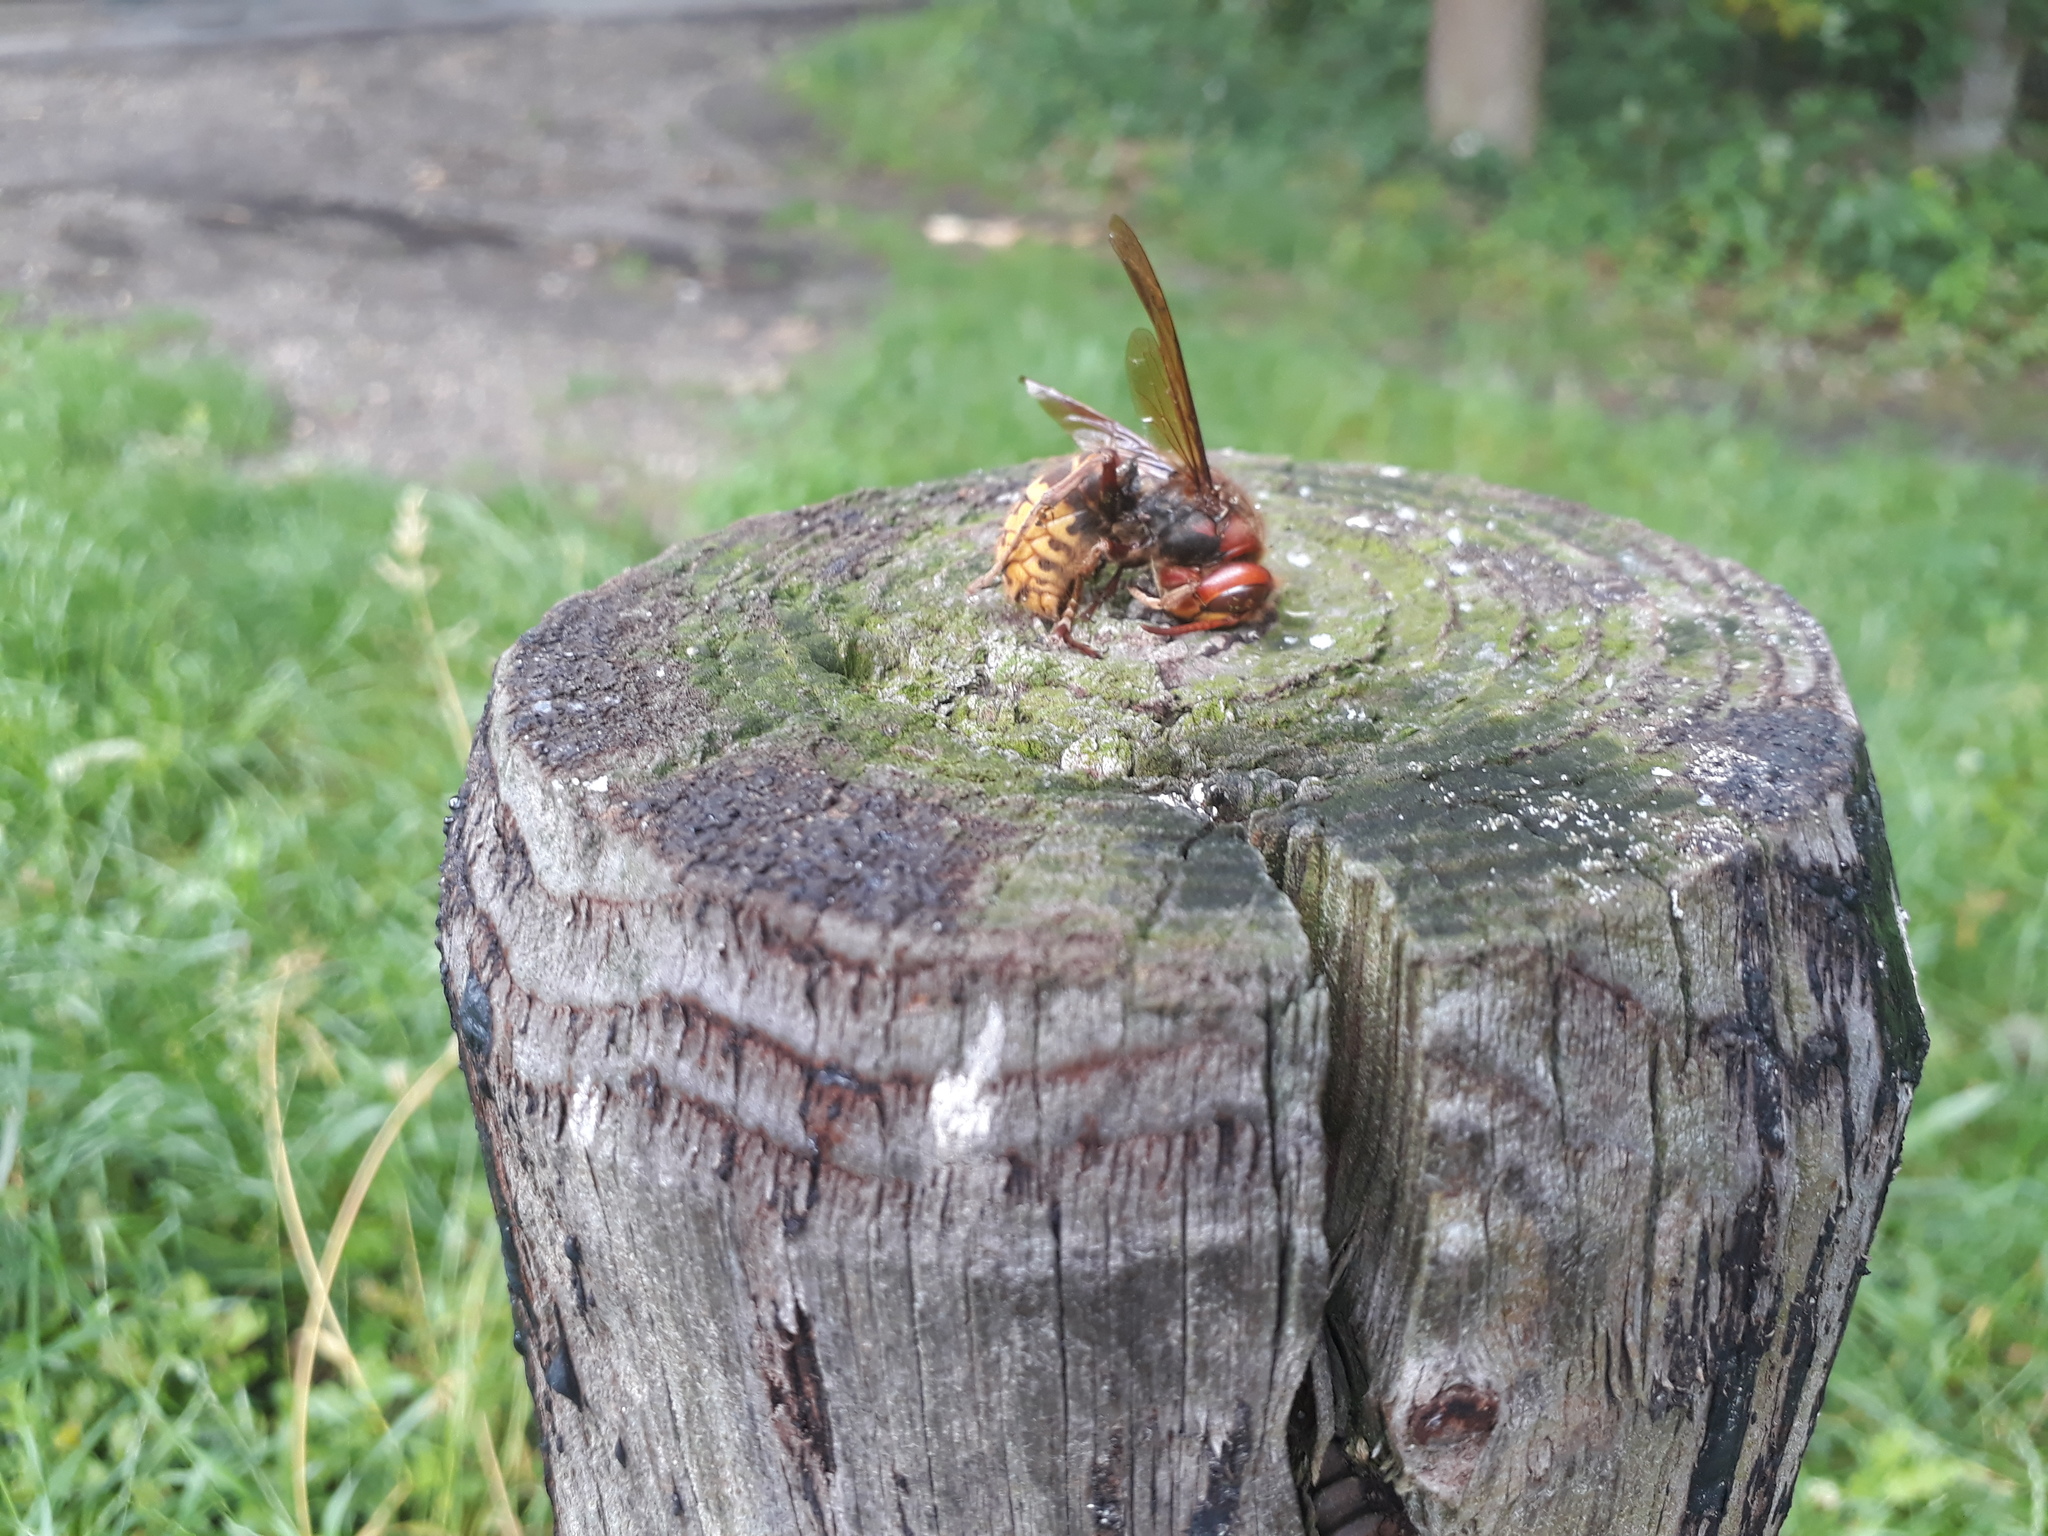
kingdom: Animalia
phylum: Arthropoda
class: Insecta
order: Hymenoptera
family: Vespidae
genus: Vespa
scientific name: Vespa crabro
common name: Hornet
